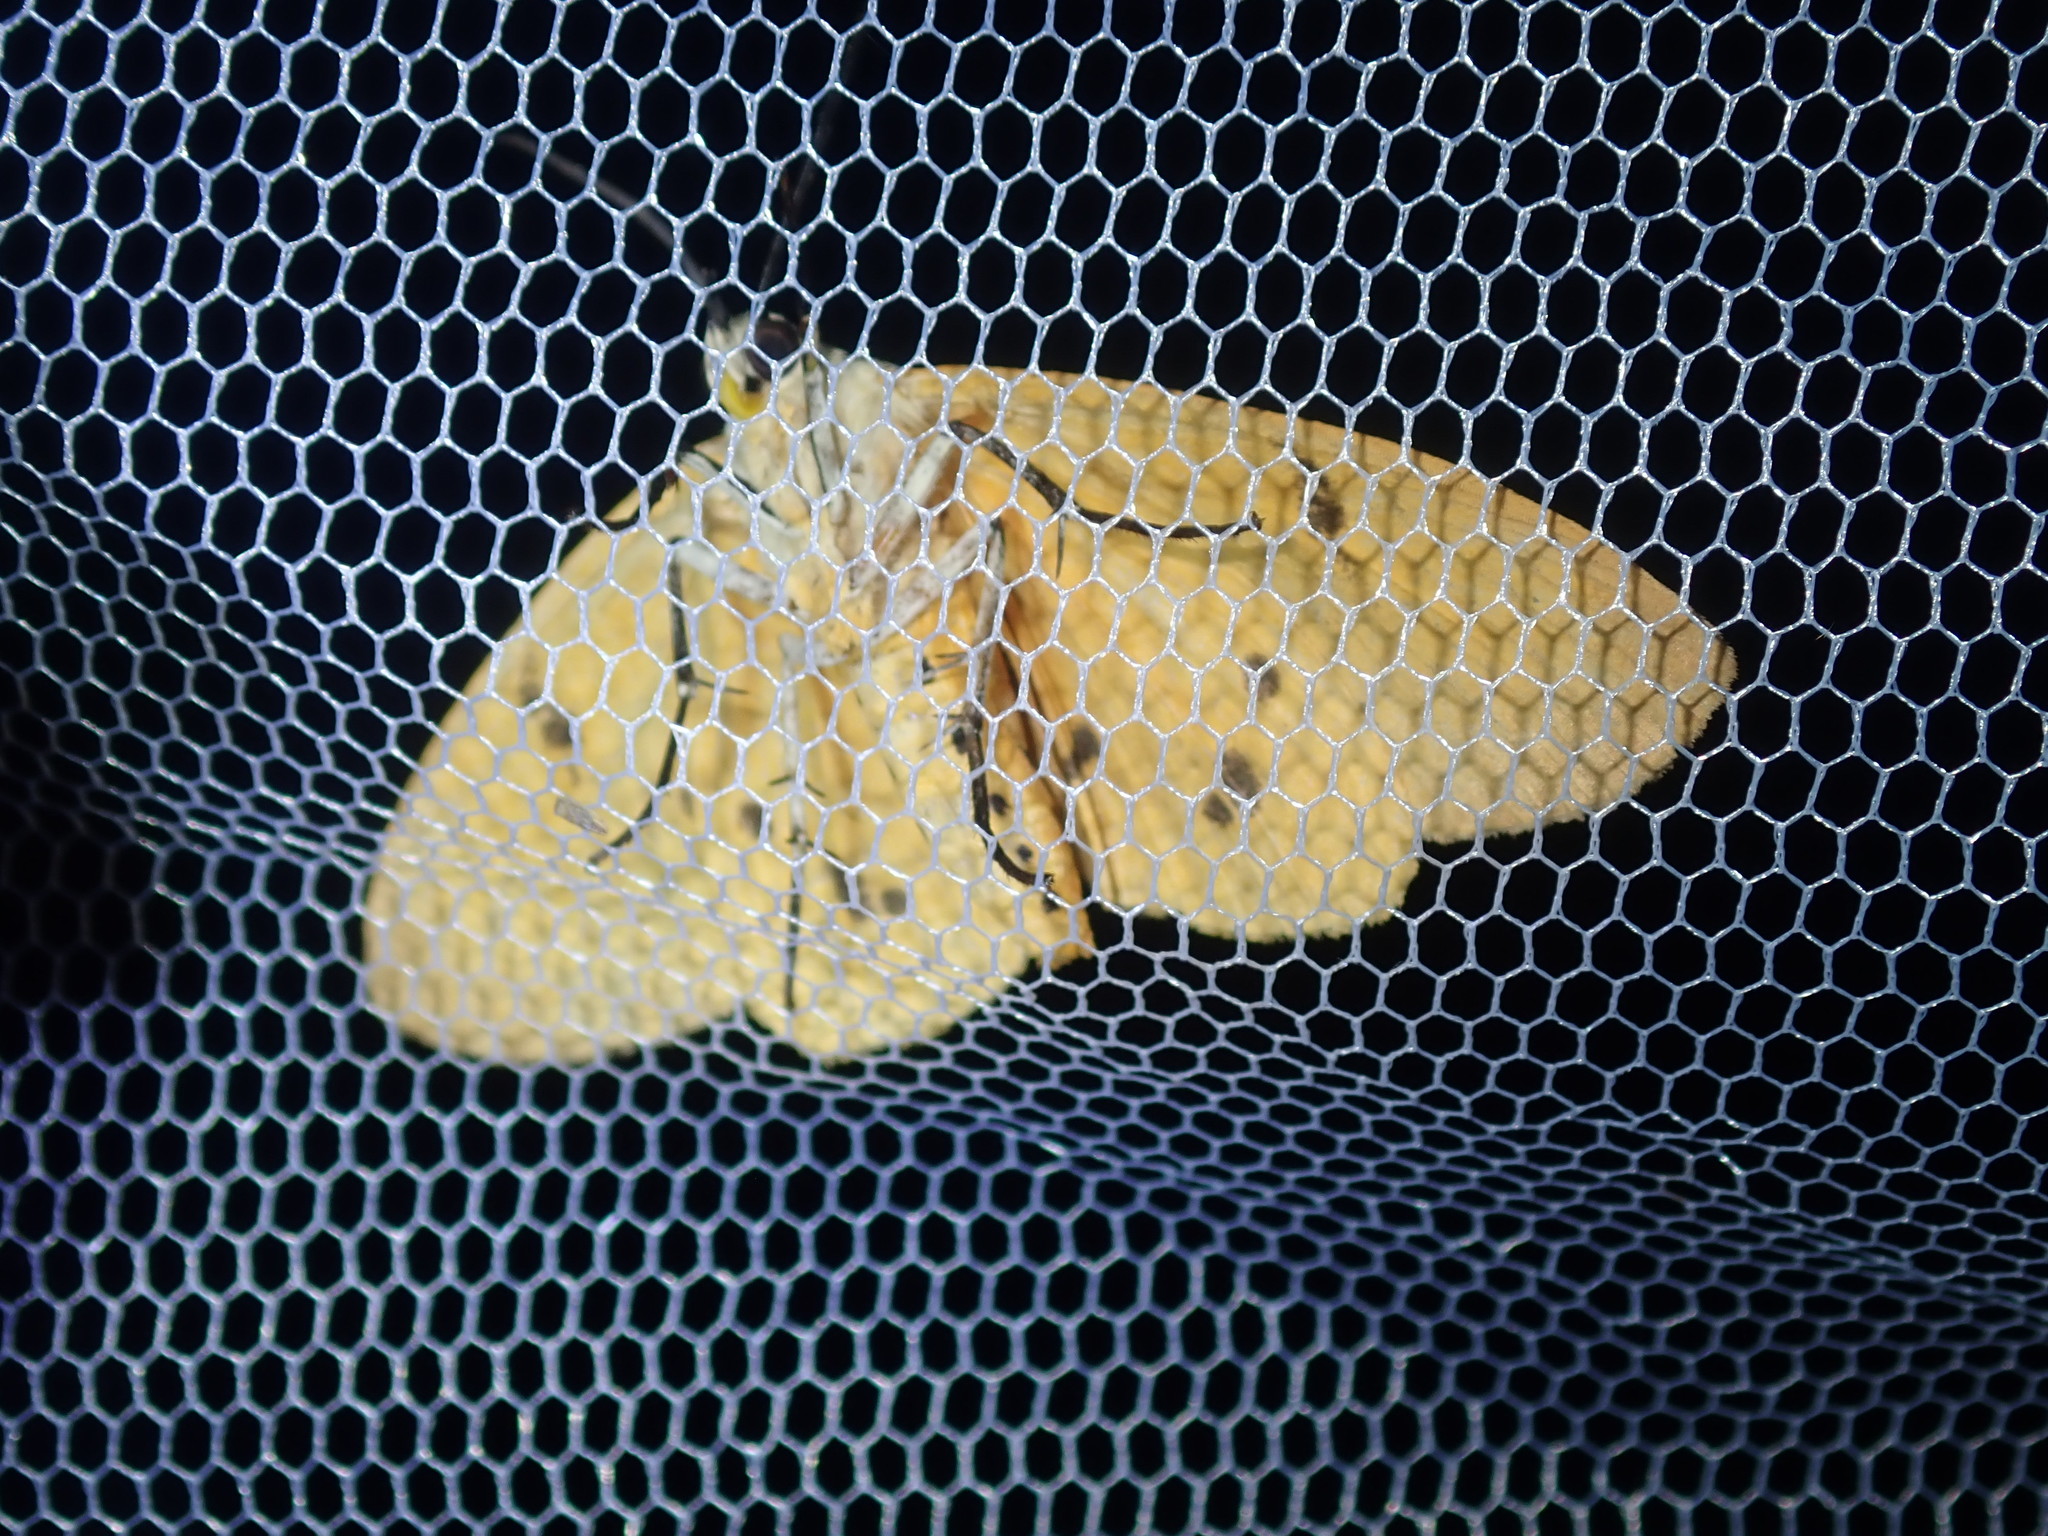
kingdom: Animalia
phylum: Arthropoda
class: Insecta
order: Lepidoptera
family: Erebidae
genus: Asota
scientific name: Asota iodamia
